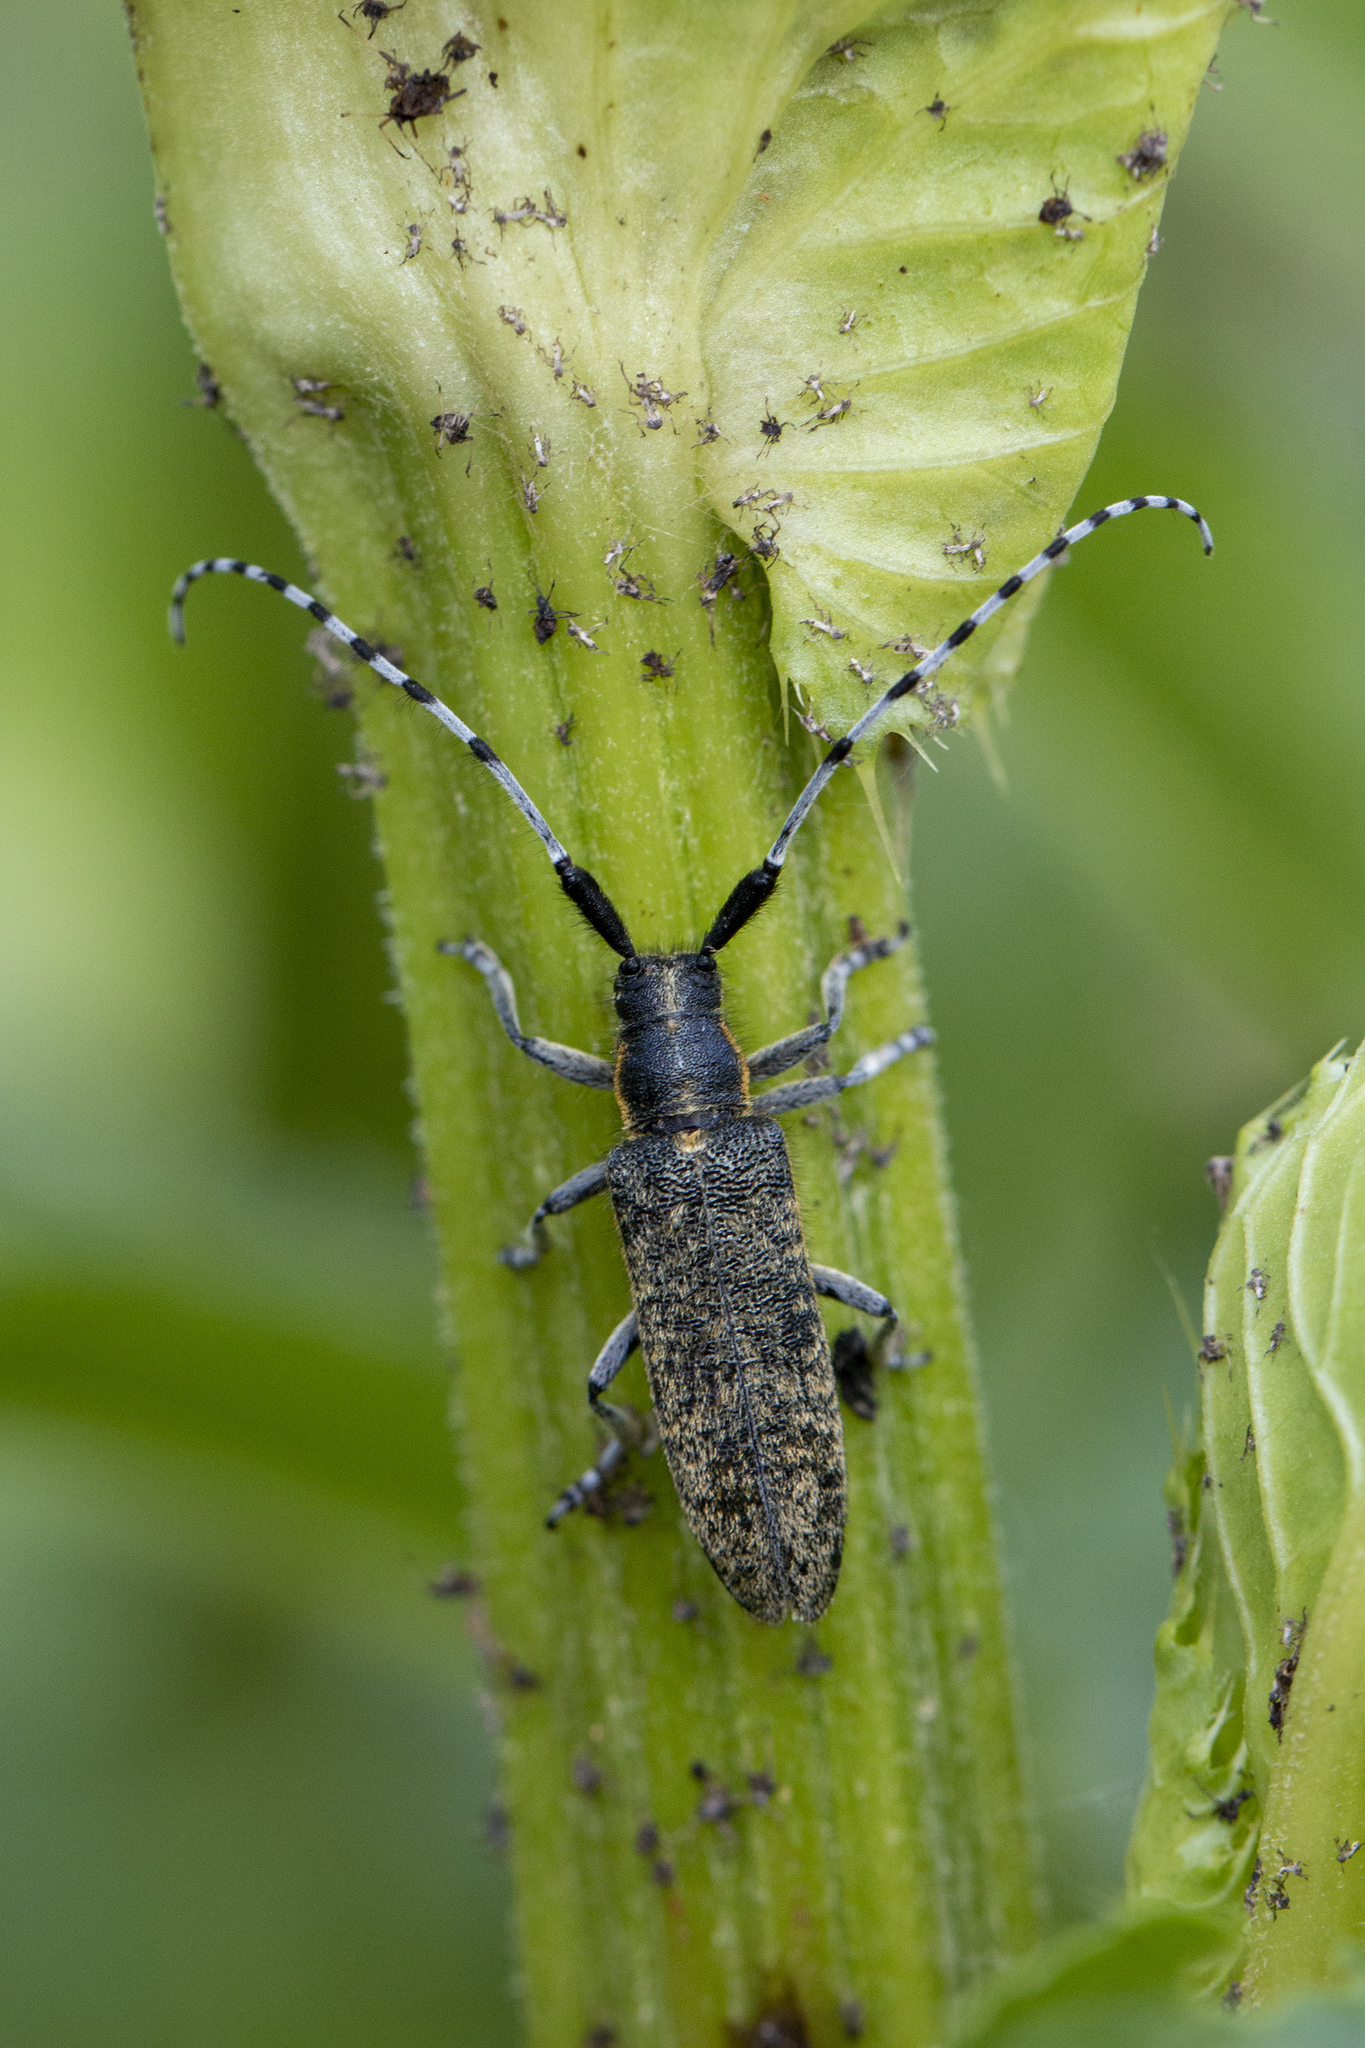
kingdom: Animalia
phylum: Arthropoda
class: Insecta
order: Coleoptera
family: Cerambycidae
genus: Agapanthia
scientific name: Agapanthia villosoviridescens
